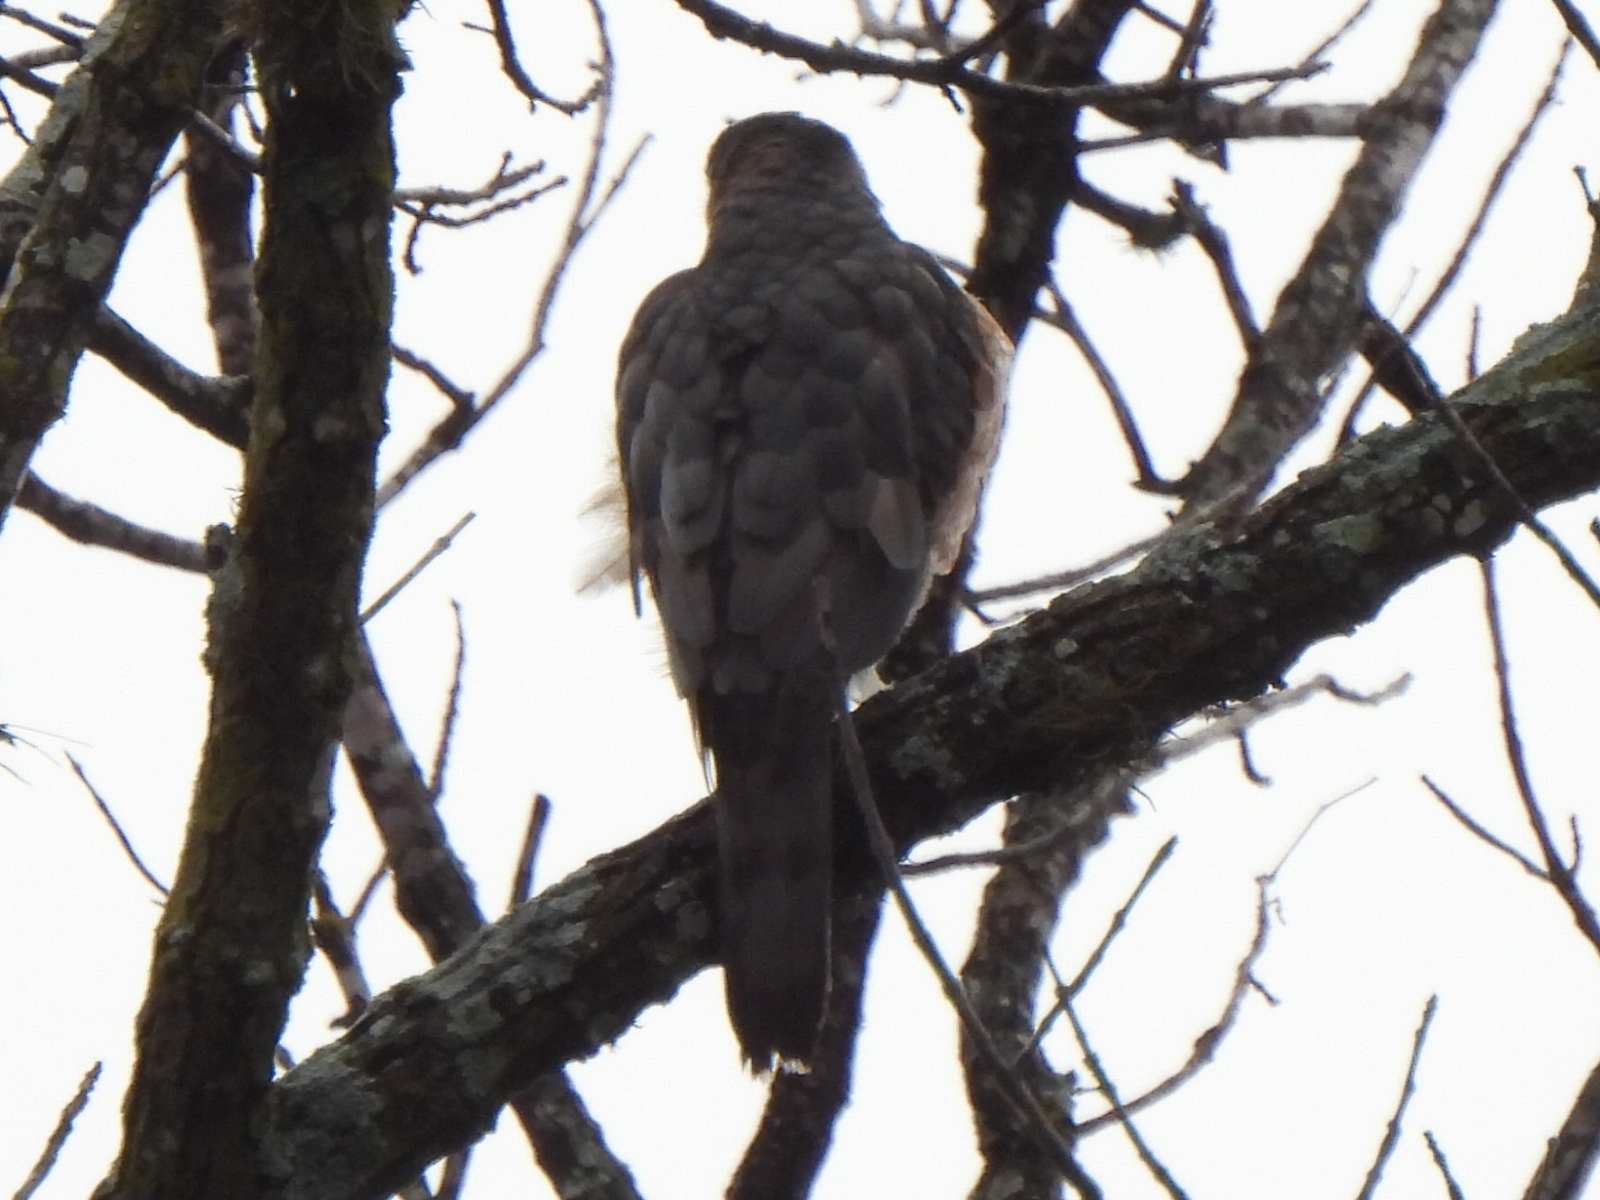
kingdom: Animalia
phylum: Chordata
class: Aves
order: Accipitriformes
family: Accipitridae
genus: Accipiter
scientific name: Accipiter cooperii
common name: Cooper's hawk
